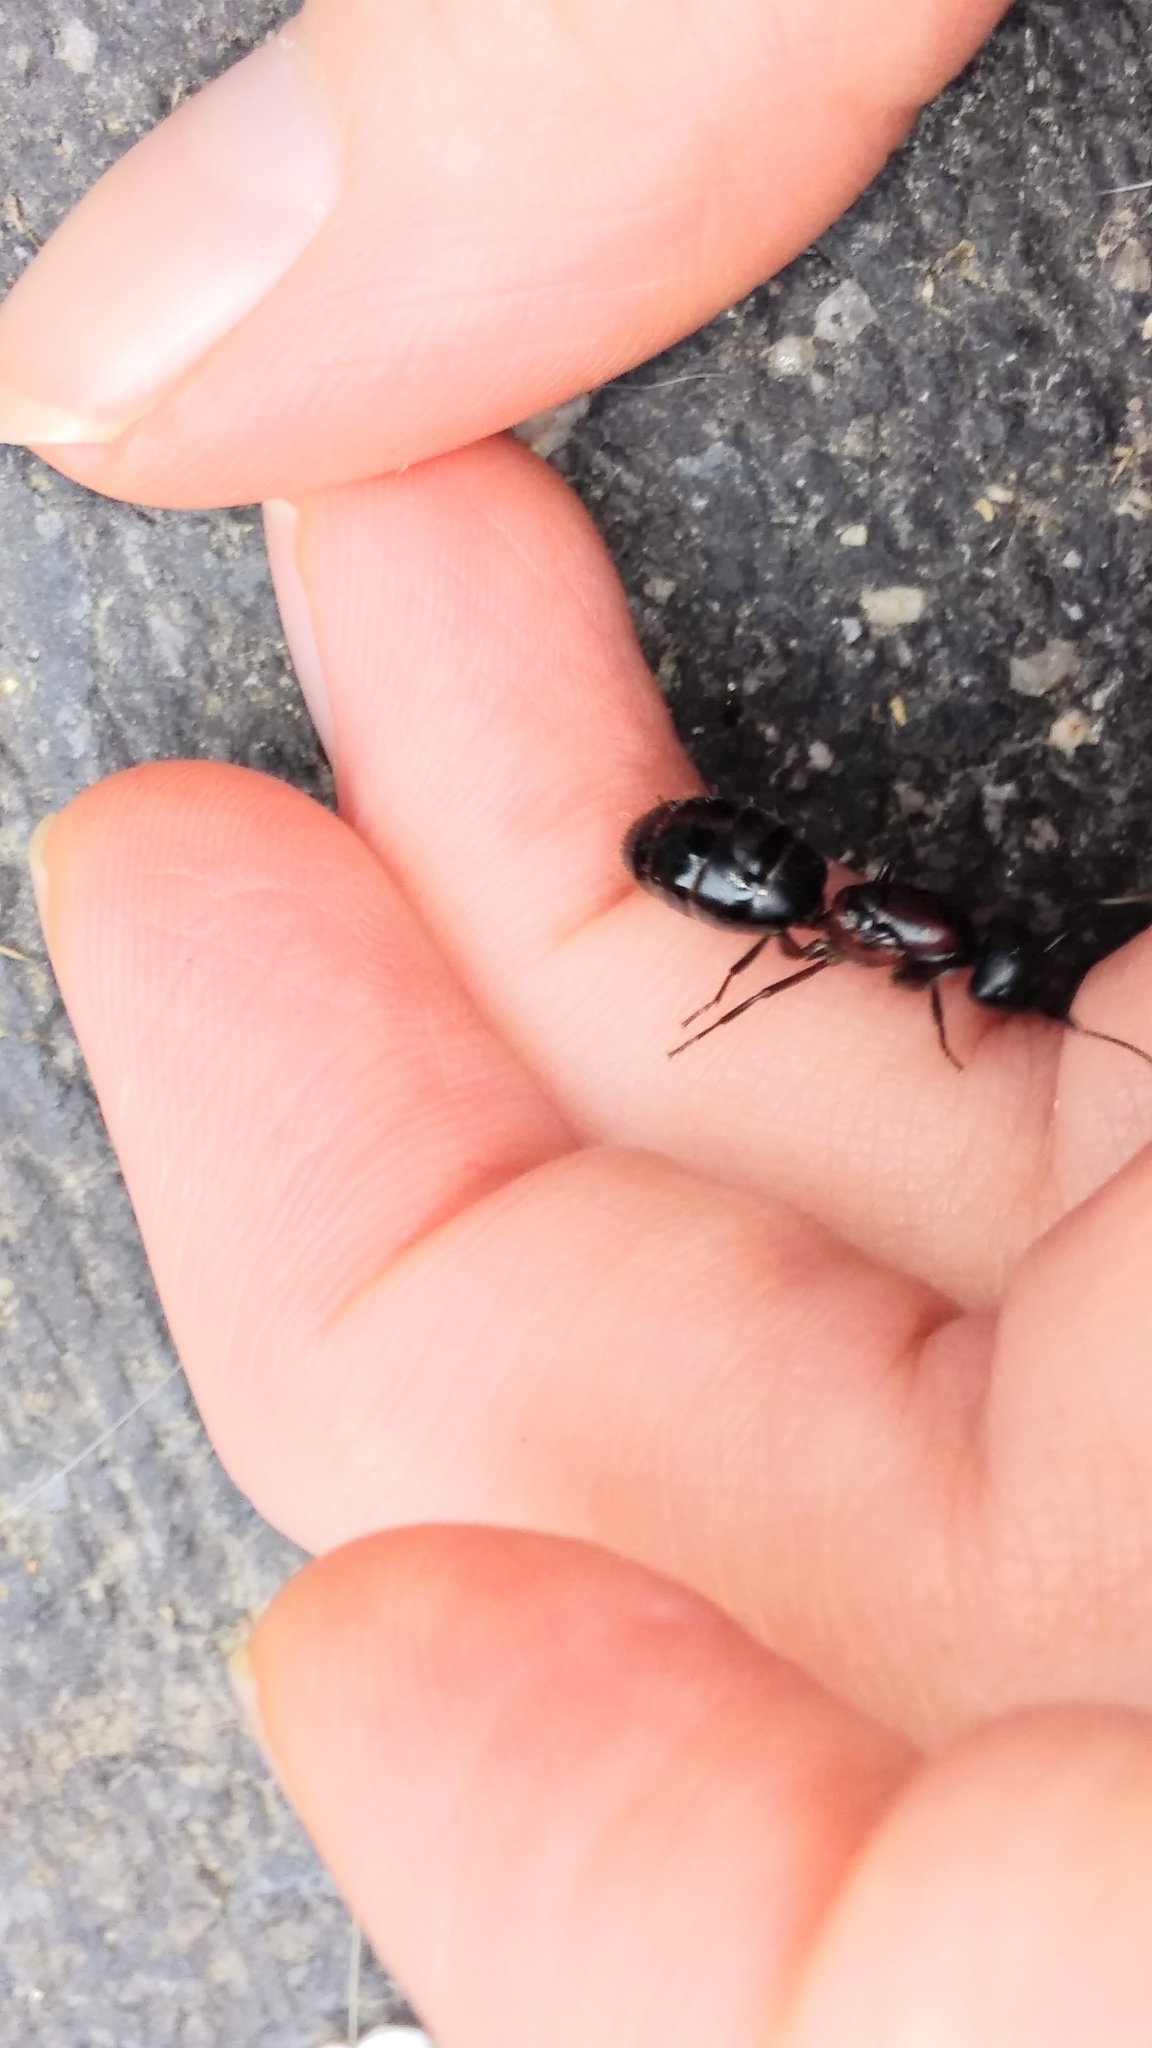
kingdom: Animalia
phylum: Arthropoda
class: Insecta
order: Hymenoptera
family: Formicidae
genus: Camponotus
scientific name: Camponotus novaeboracensis
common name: New york carpenter ant
